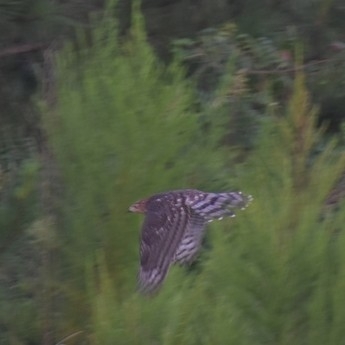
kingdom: Animalia
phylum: Chordata
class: Aves
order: Accipitriformes
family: Accipitridae
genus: Accipiter
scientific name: Accipiter cooperii
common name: Cooper's hawk
